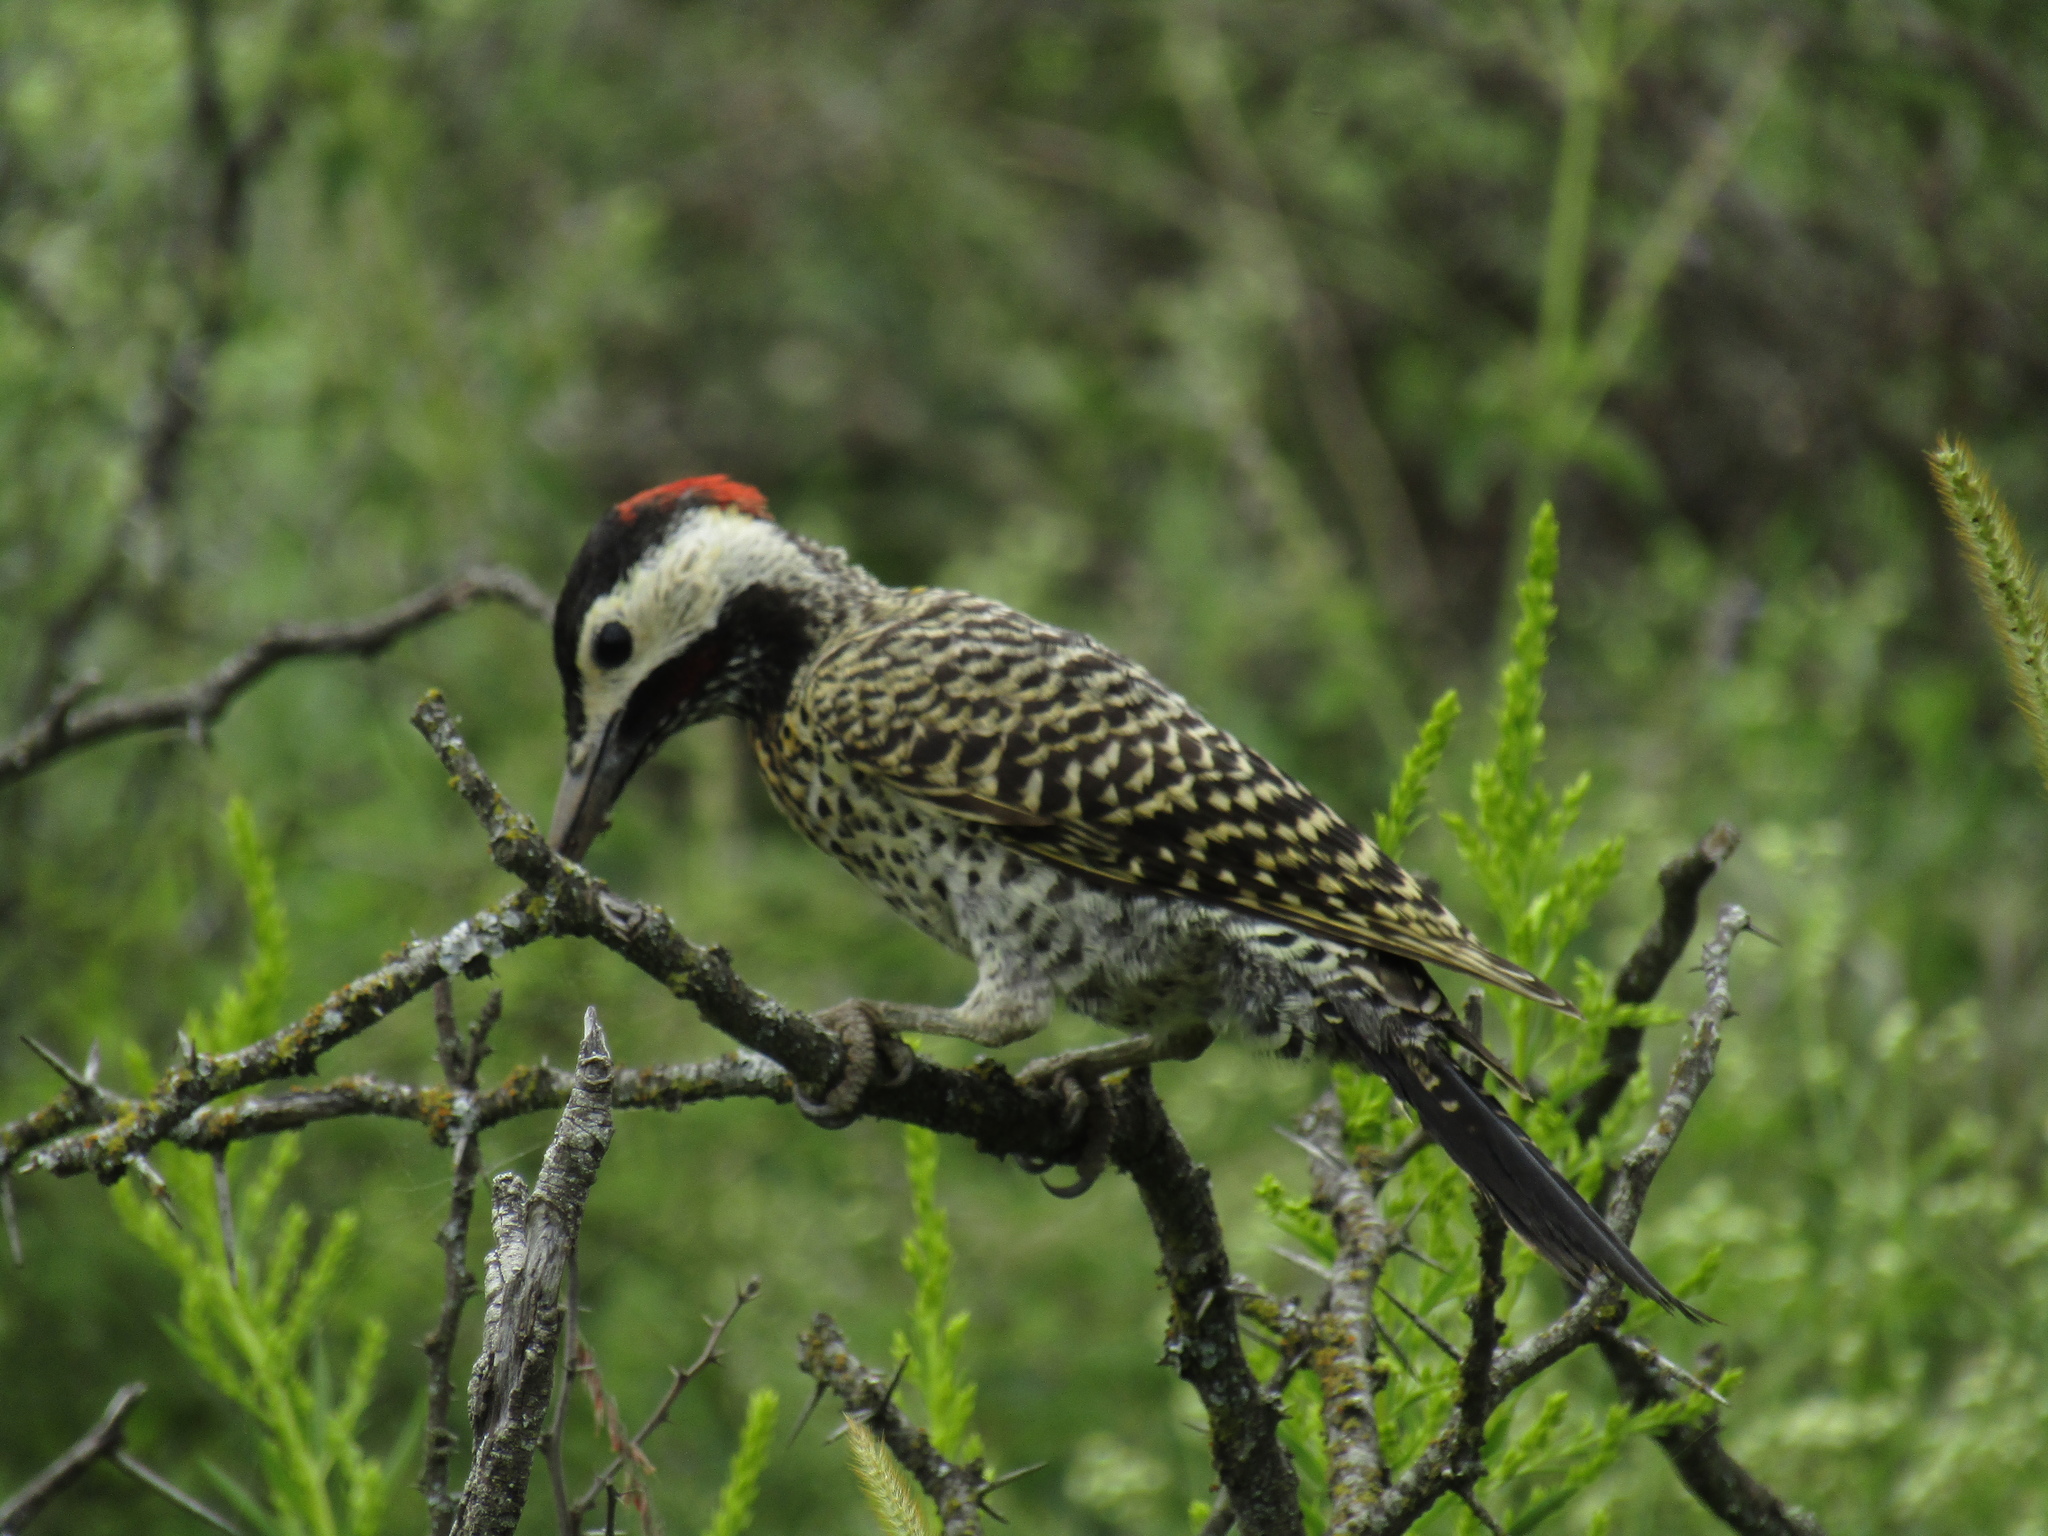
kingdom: Animalia
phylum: Chordata
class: Aves
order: Piciformes
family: Picidae
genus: Colaptes
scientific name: Colaptes melanochloros
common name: Green-barred woodpecker
